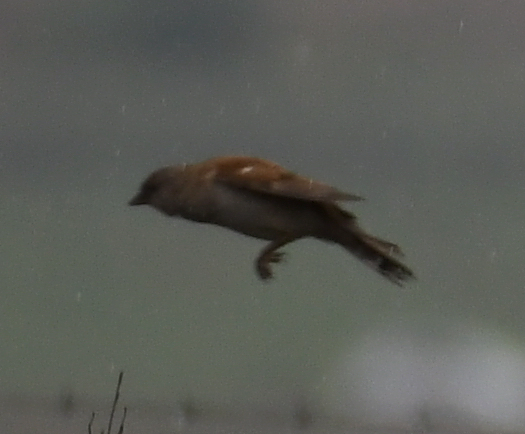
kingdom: Animalia
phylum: Chordata
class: Aves
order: Passeriformes
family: Passeridae
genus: Passer
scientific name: Passer diffusus
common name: Southern grey-headed sparrow
